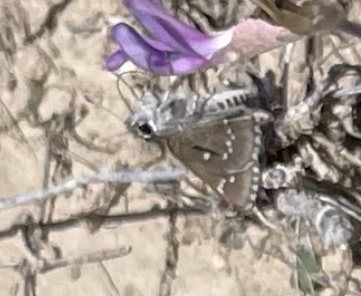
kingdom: Animalia
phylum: Arthropoda
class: Insecta
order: Lepidoptera
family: Hesperiidae
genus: Mastor
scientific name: Mastor eos
